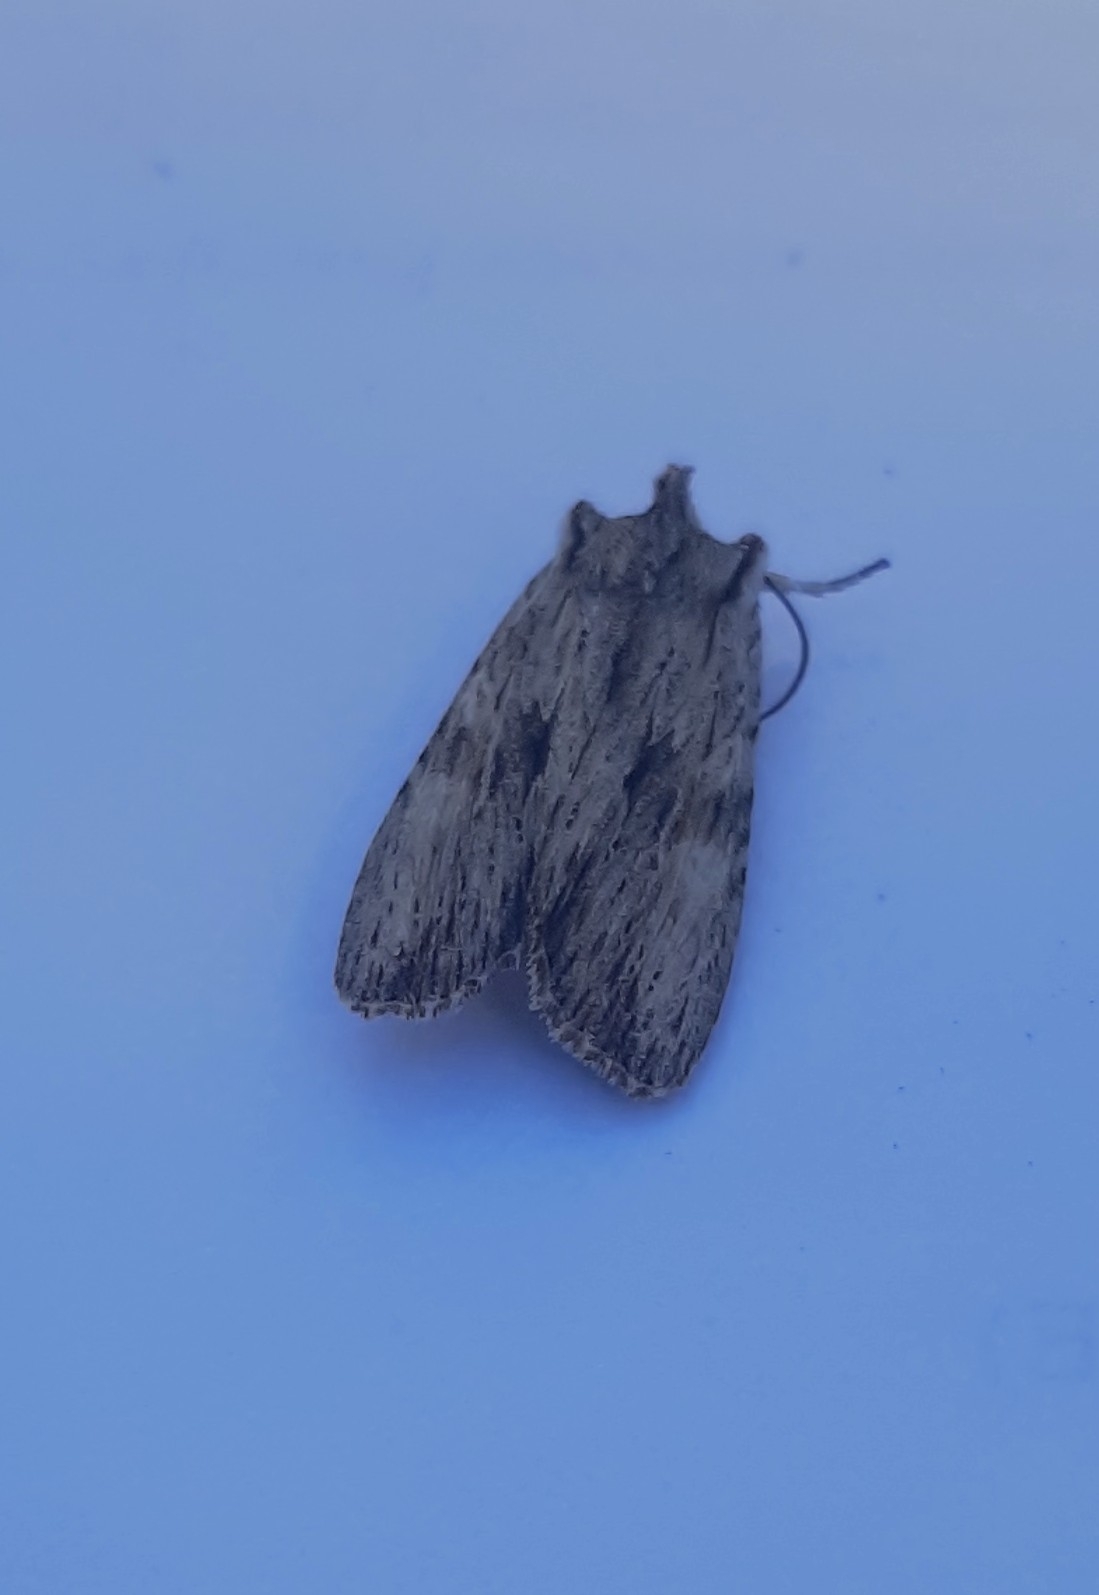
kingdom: Animalia
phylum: Arthropoda
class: Insecta
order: Lepidoptera
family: Noctuidae
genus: Lithophane
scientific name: Lithophane socia
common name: Pale pinion
